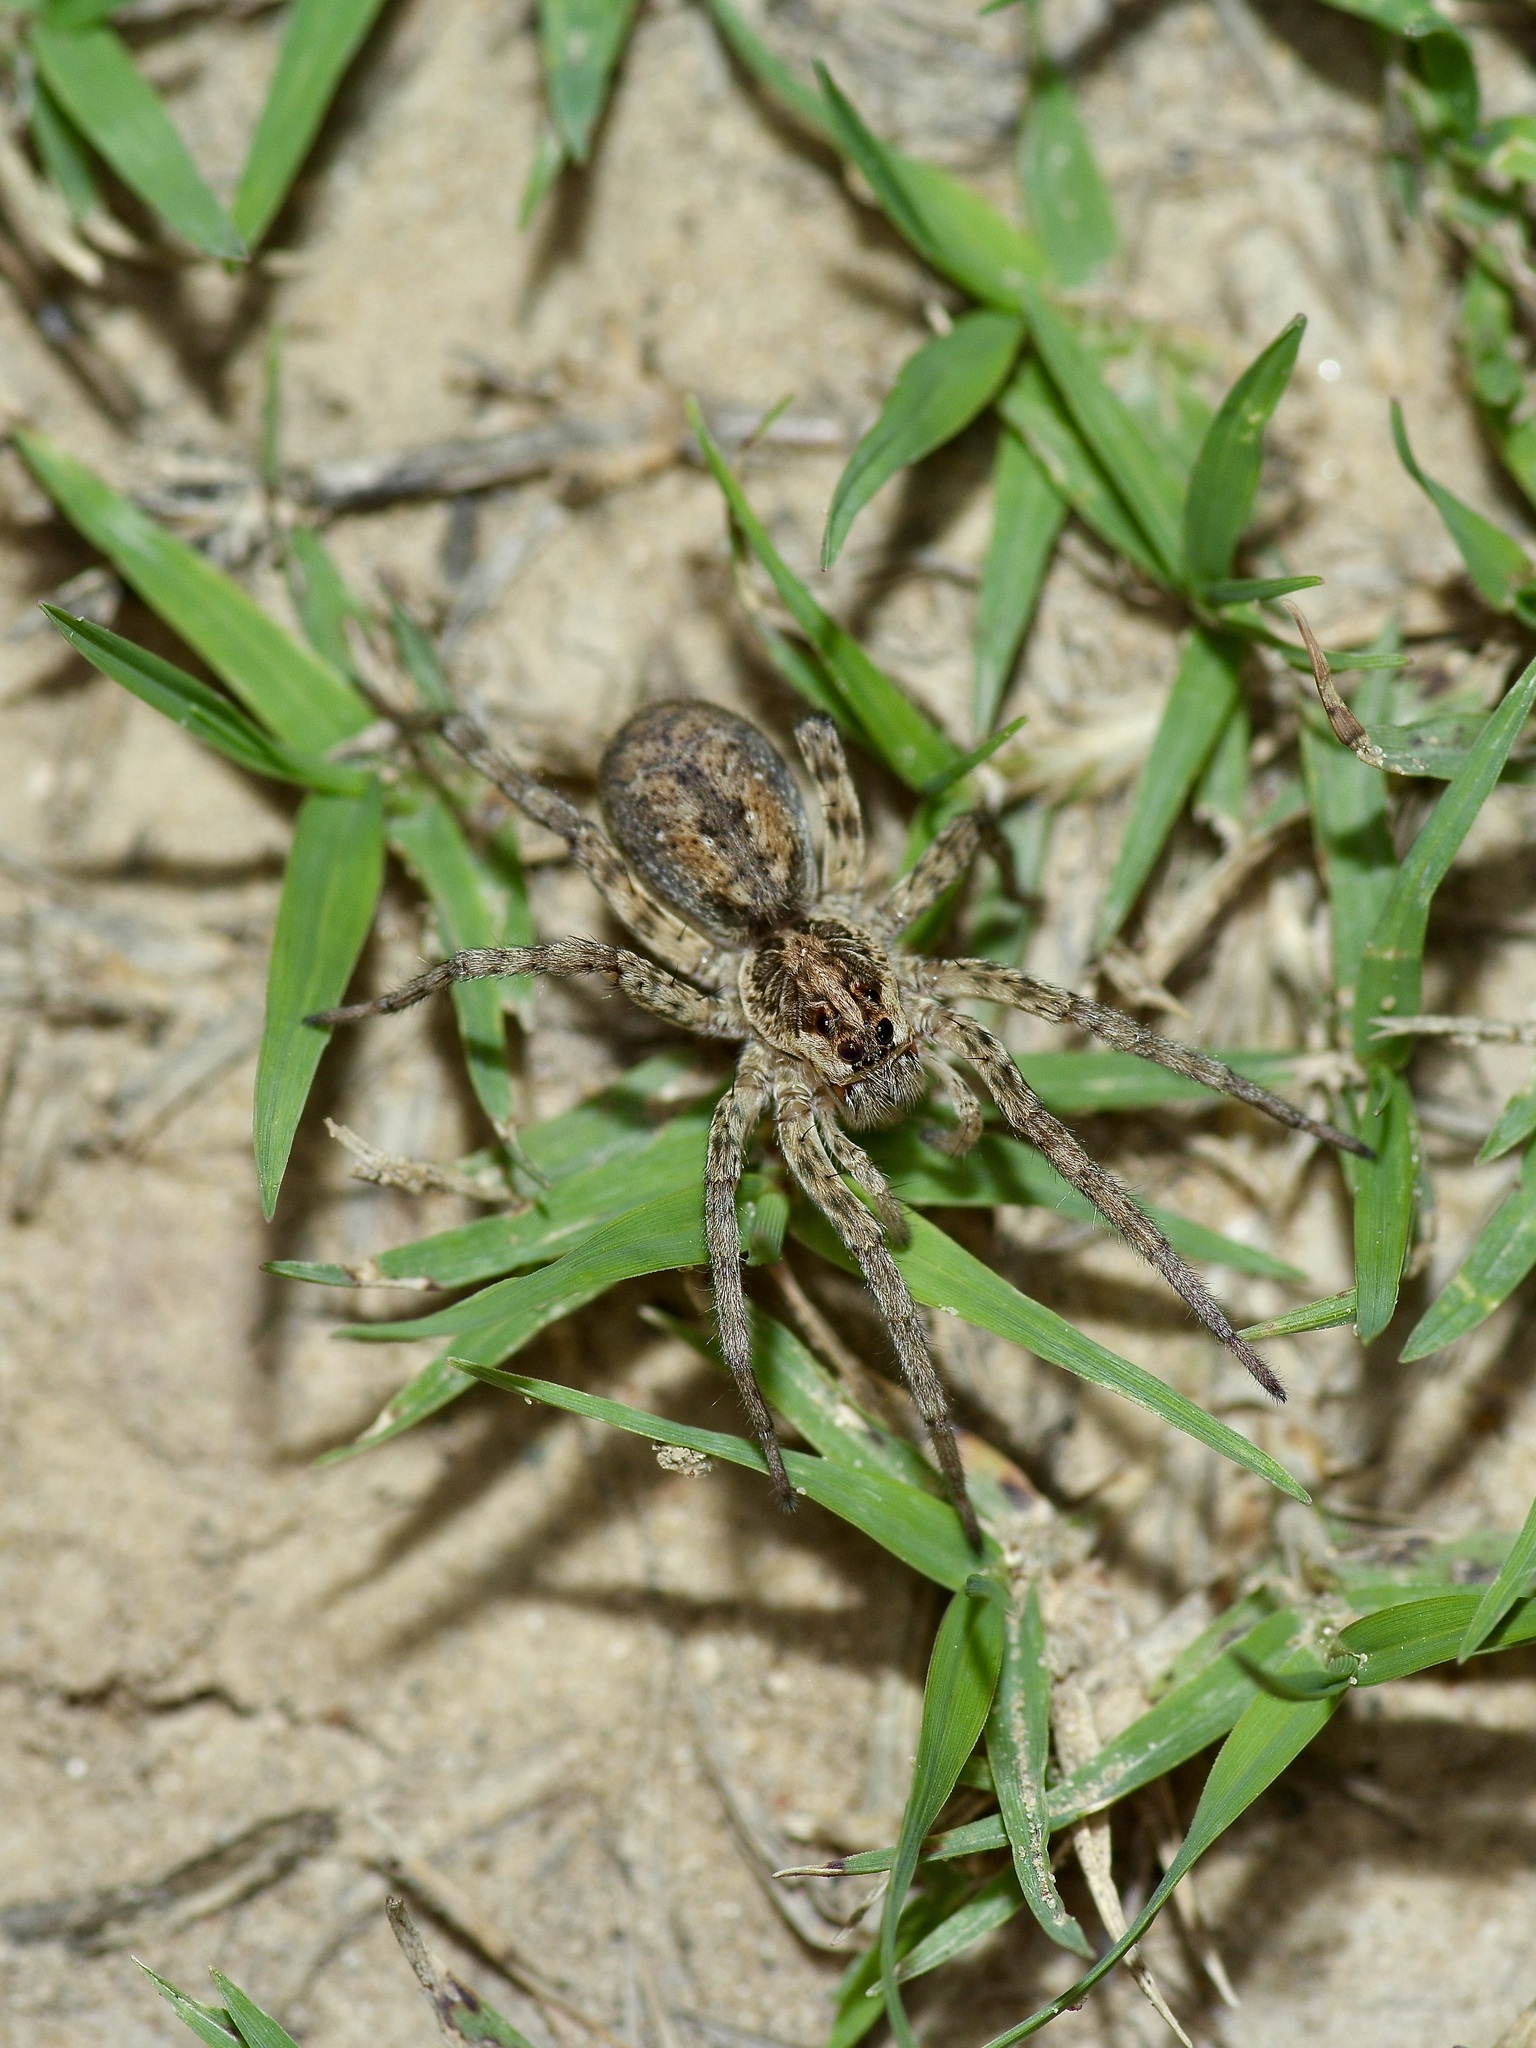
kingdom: Animalia
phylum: Arthropoda
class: Arachnida
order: Araneae
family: Lycosidae
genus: Hogna
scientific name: Hogna baltimoriana
